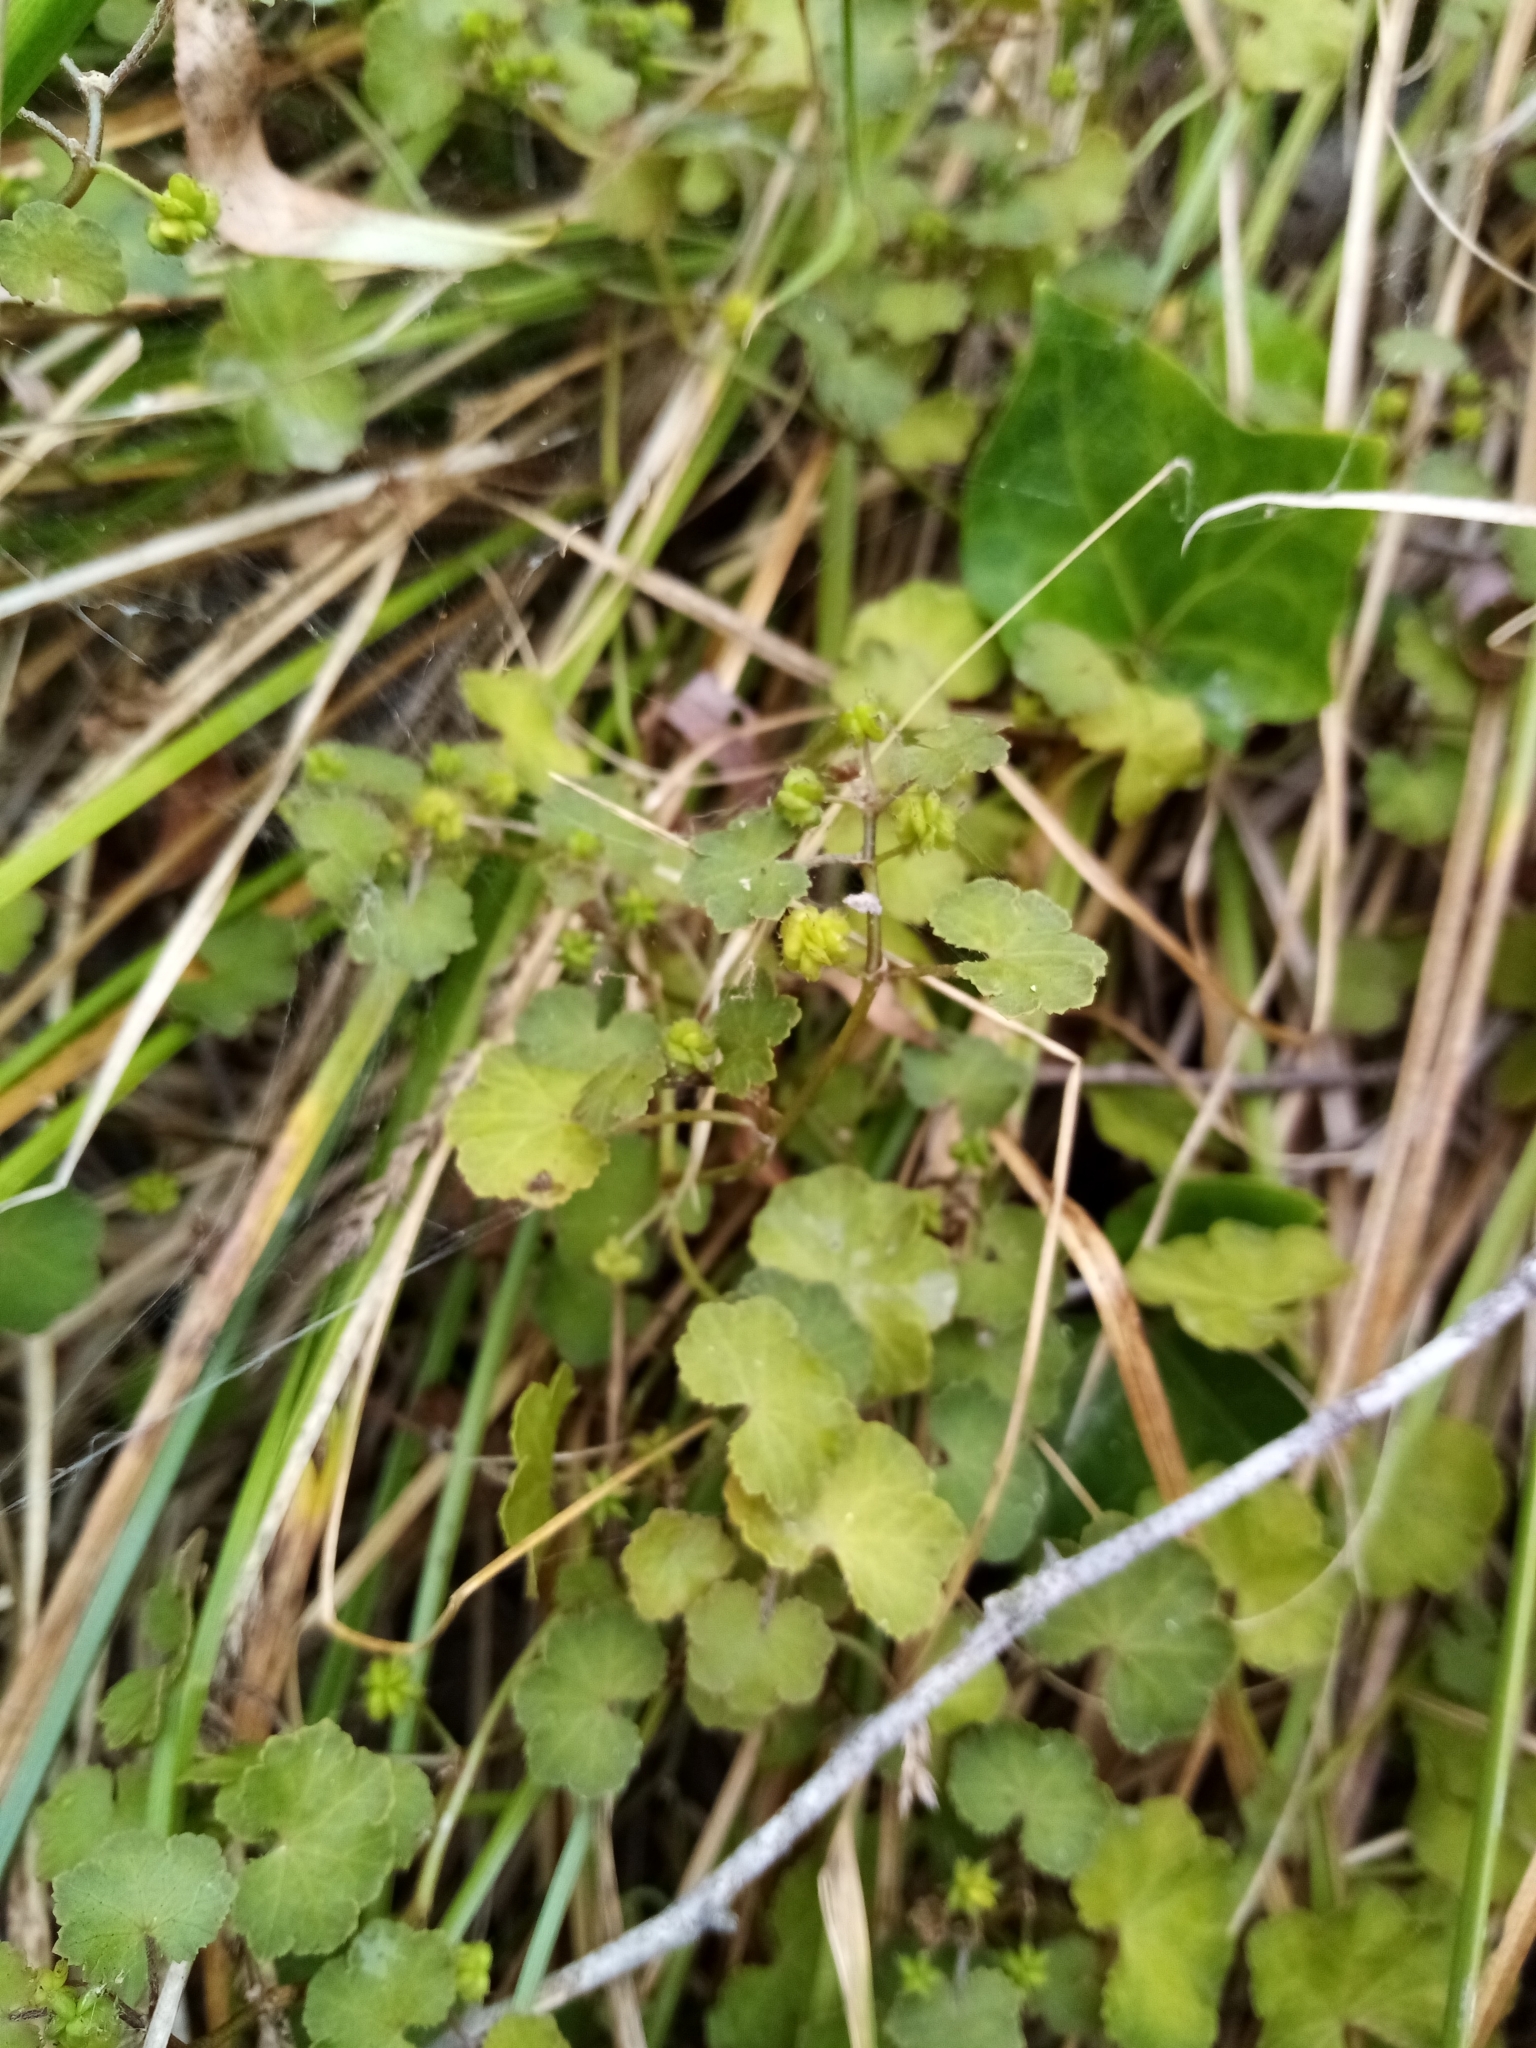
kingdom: Plantae
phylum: Tracheophyta
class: Magnoliopsida
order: Apiales
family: Araliaceae
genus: Hydrocotyle
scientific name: Hydrocotyle novae-zeelandiae
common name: New zealand pennywort
